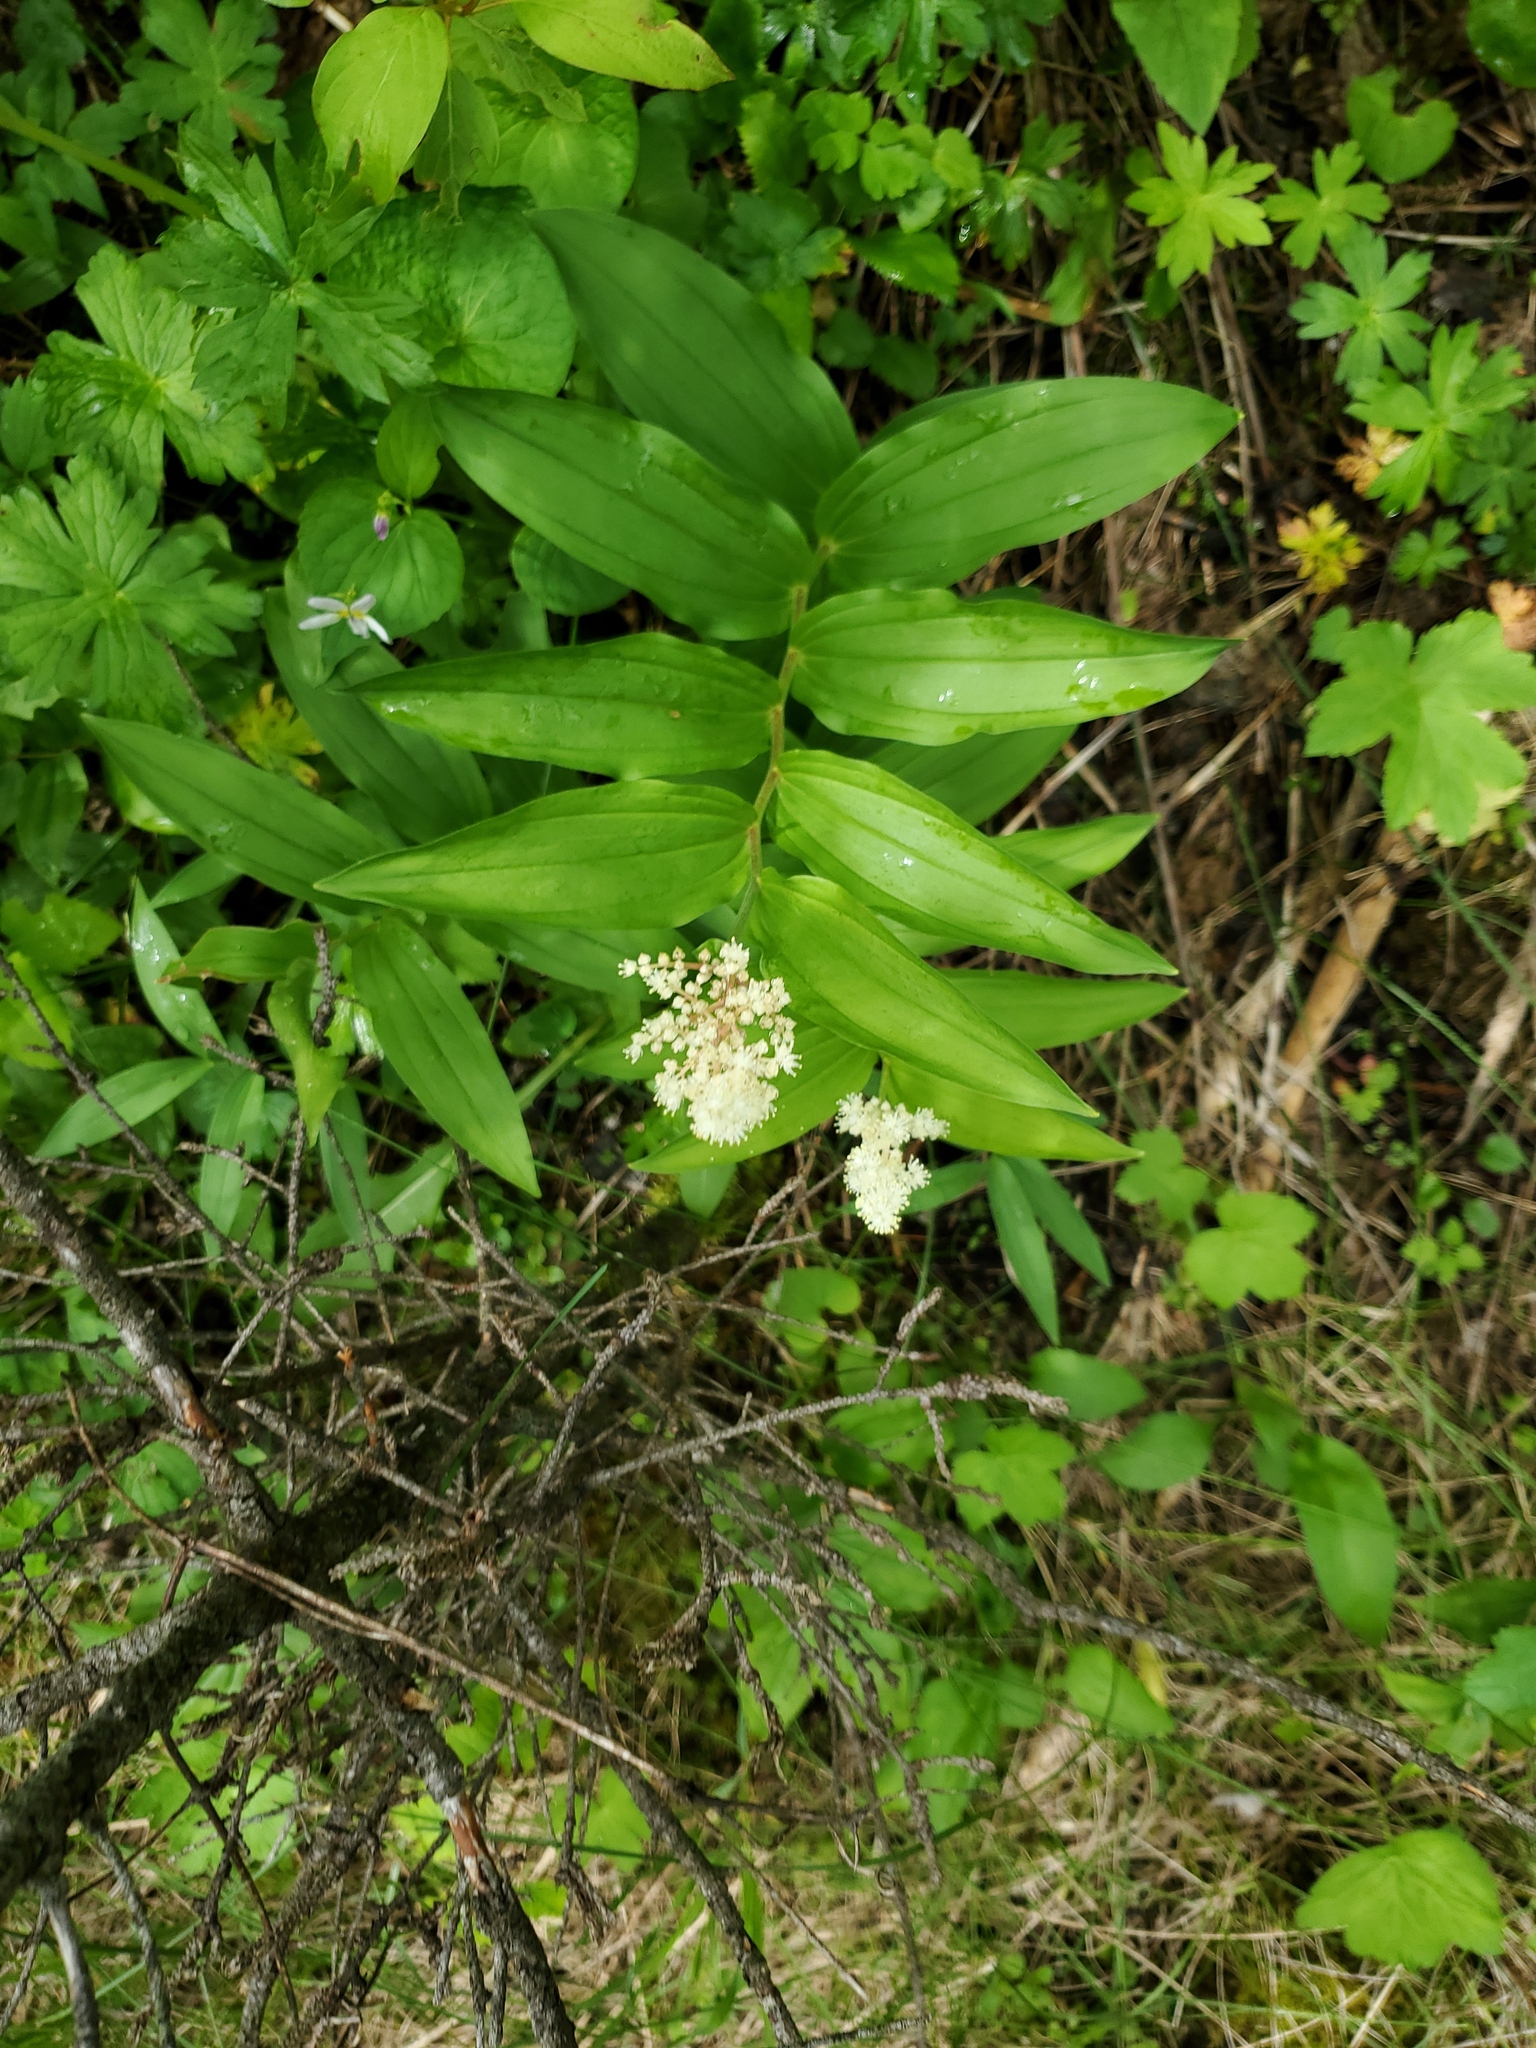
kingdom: Plantae
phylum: Tracheophyta
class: Liliopsida
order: Asparagales
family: Asparagaceae
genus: Maianthemum
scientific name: Maianthemum racemosum
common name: False spikenard
